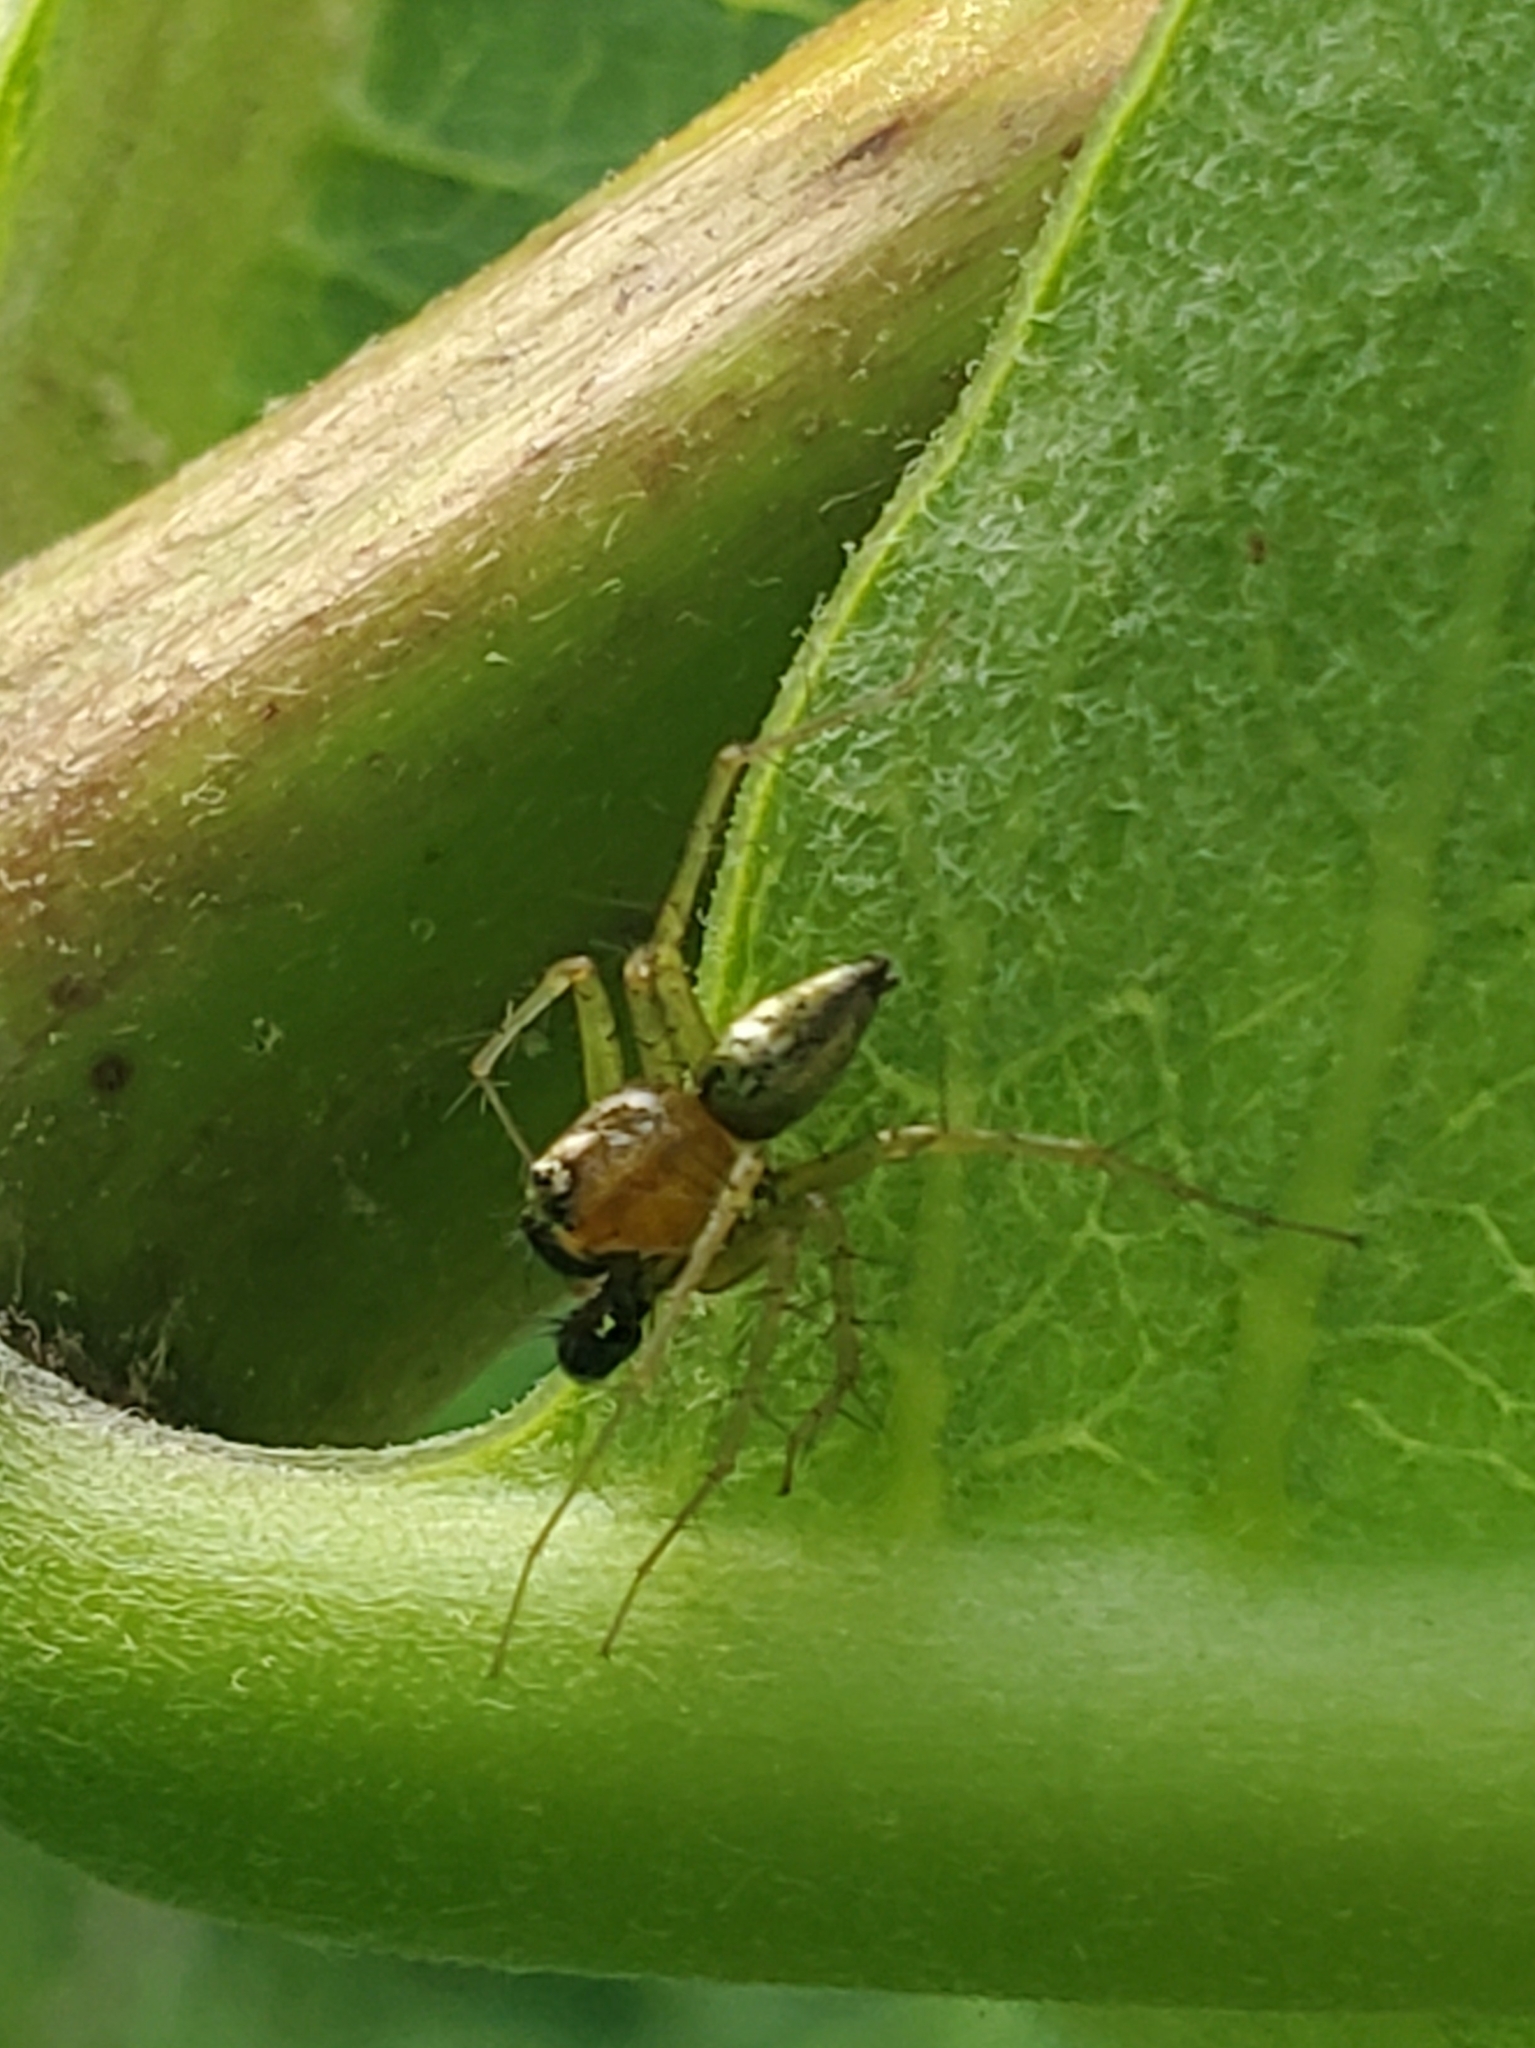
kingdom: Animalia
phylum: Arthropoda
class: Arachnida
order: Araneae
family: Oxyopidae
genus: Oxyopes
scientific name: Oxyopes salticus
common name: Lynx spiders
